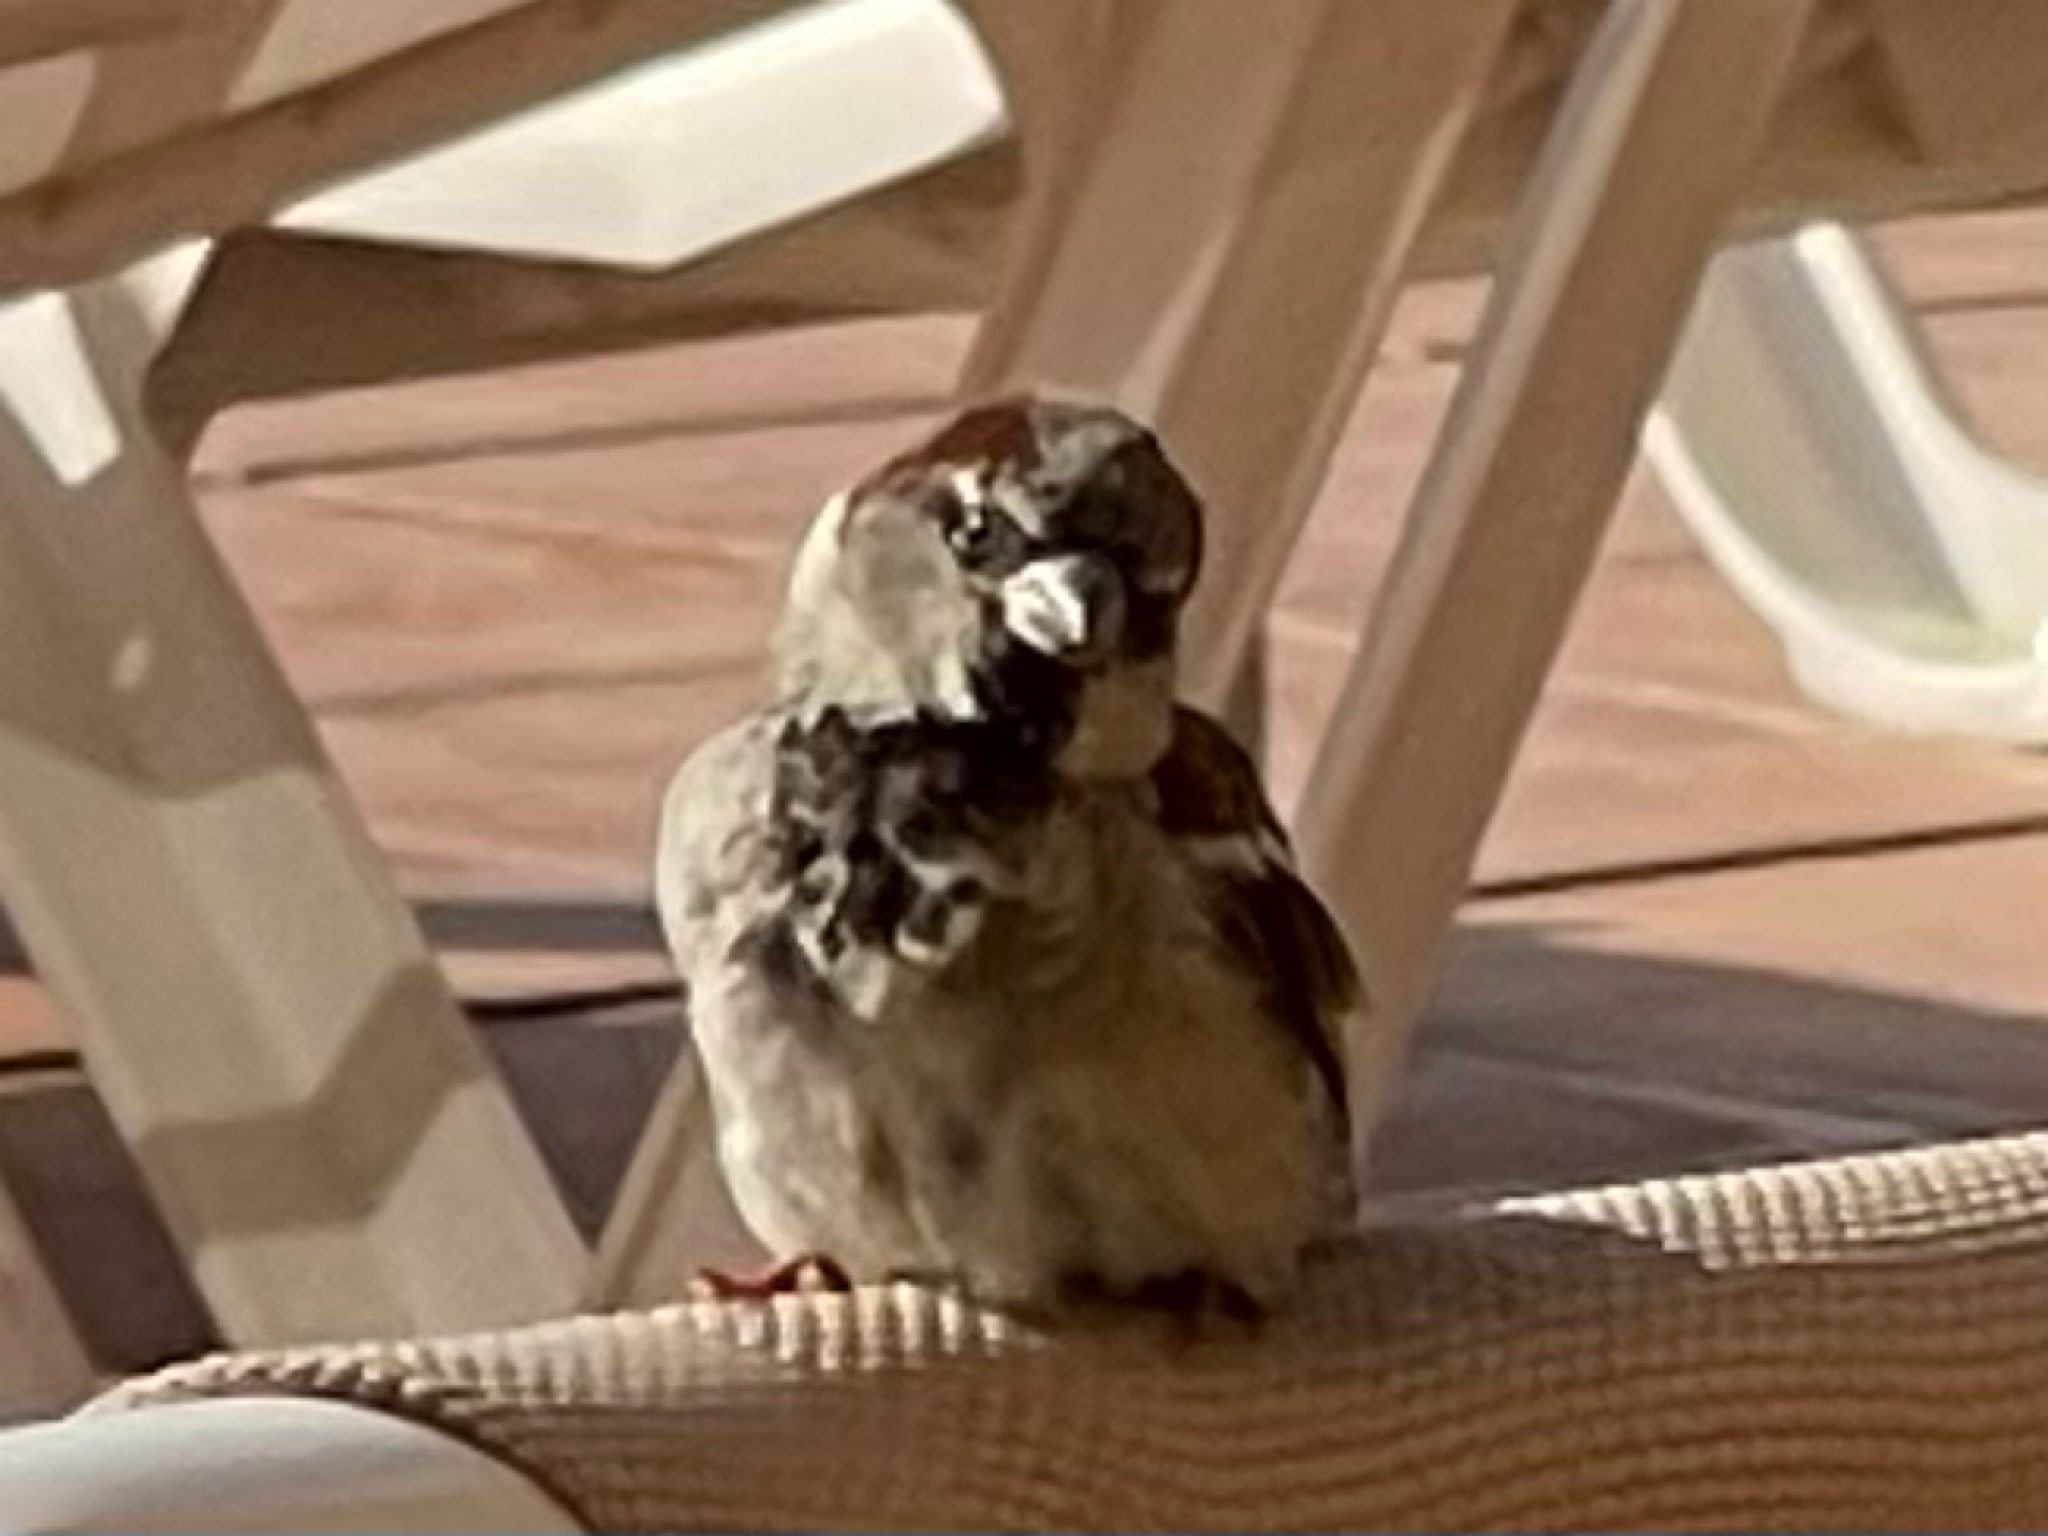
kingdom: Animalia
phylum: Chordata
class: Aves
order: Passeriformes
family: Passeridae
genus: Passer
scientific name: Passer domesticus
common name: House sparrow
